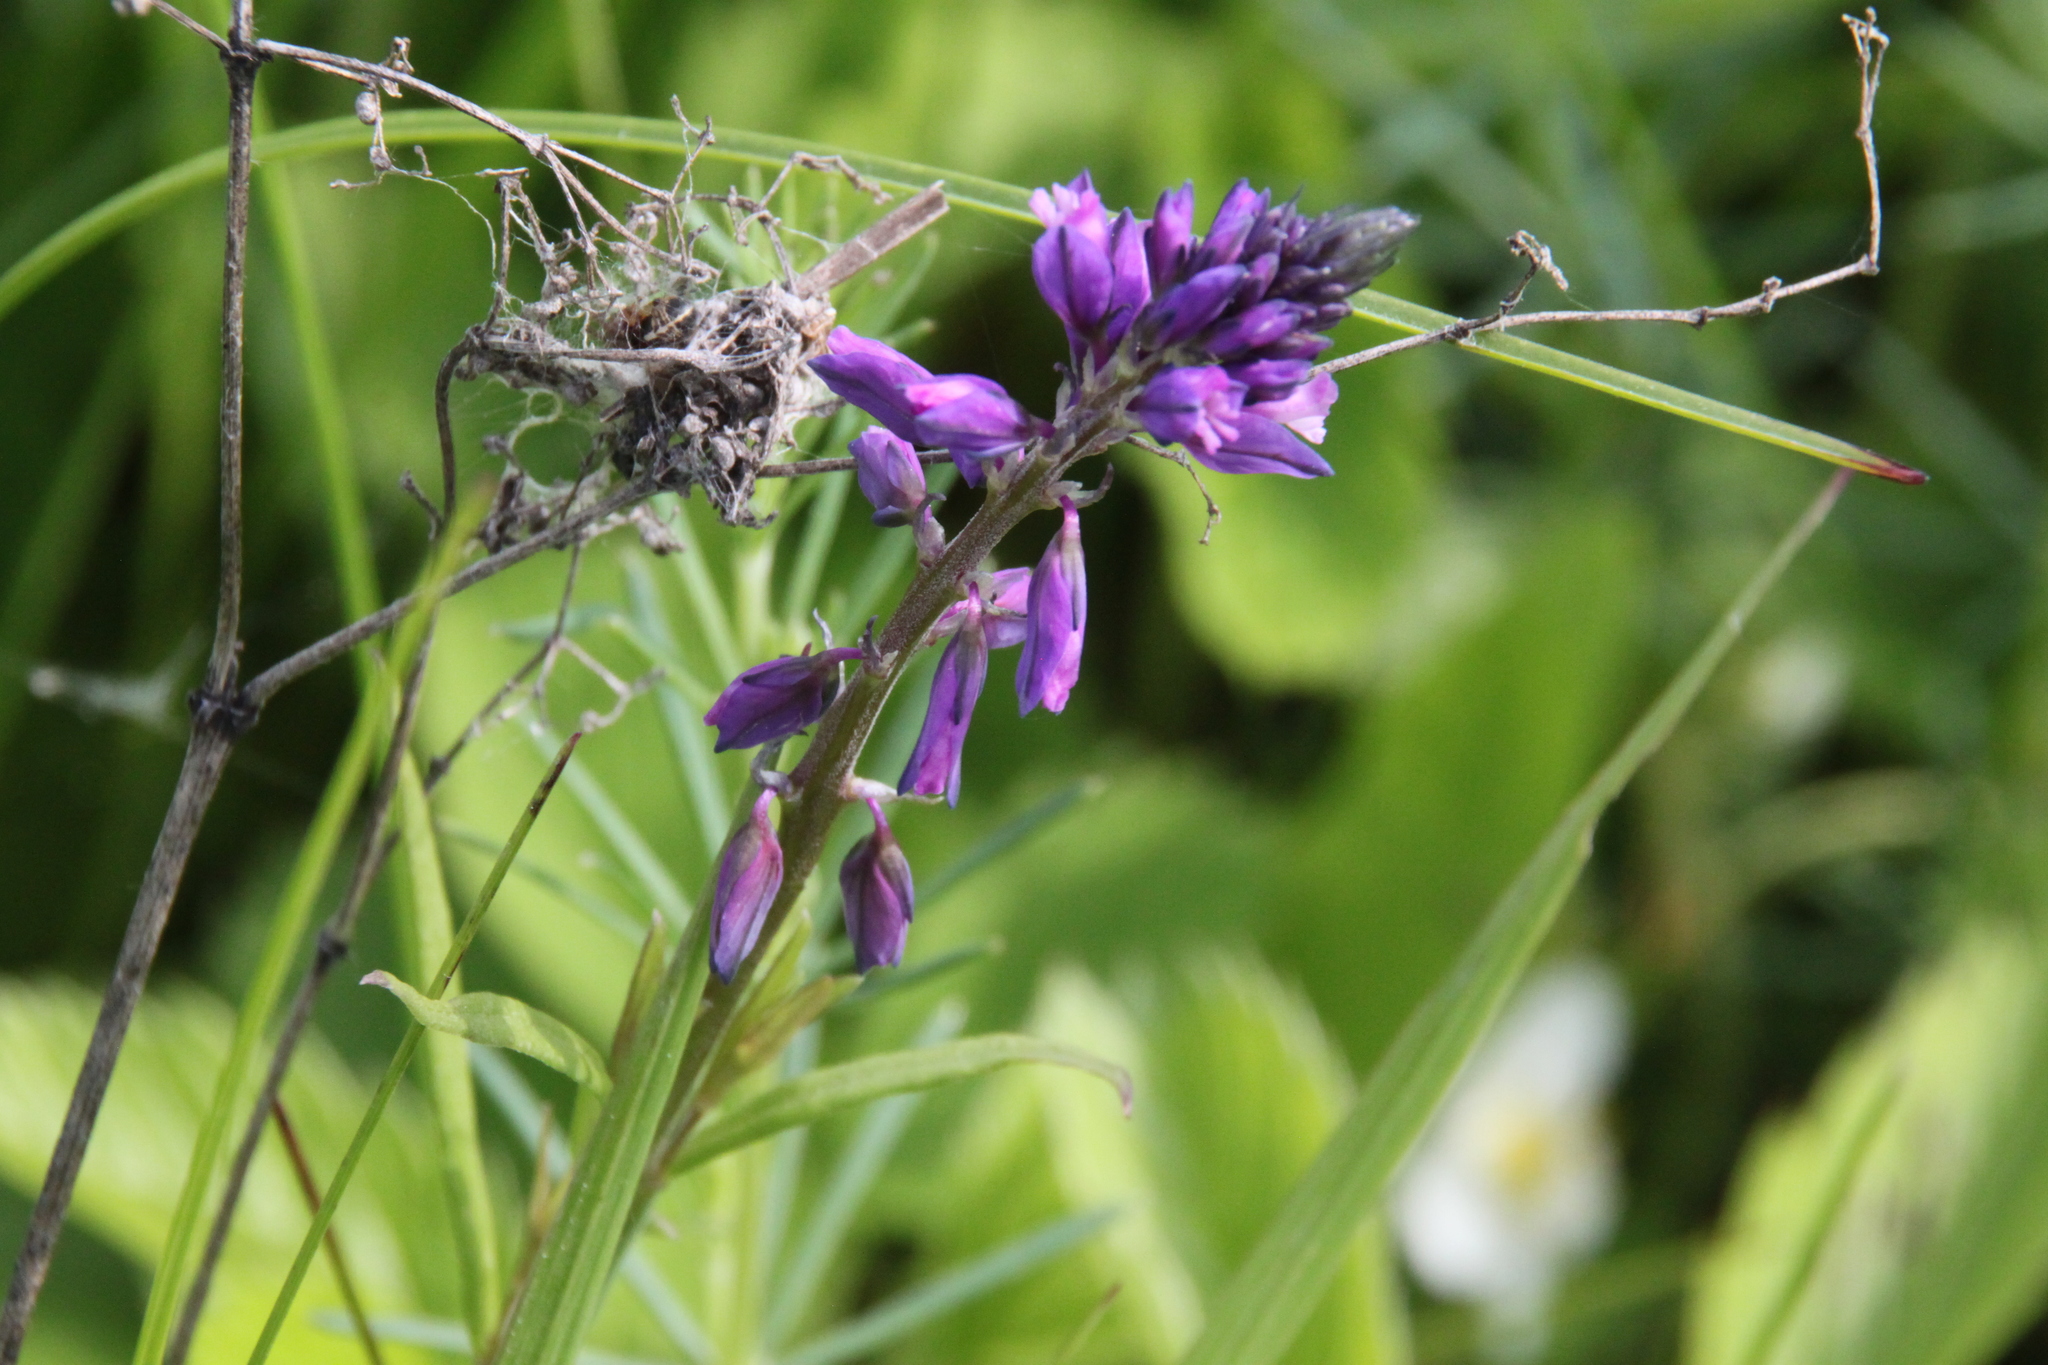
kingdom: Plantae
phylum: Tracheophyta
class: Magnoliopsida
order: Fabales
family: Polygalaceae
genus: Polygala
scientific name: Polygala comosa
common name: Tufted milkwort
